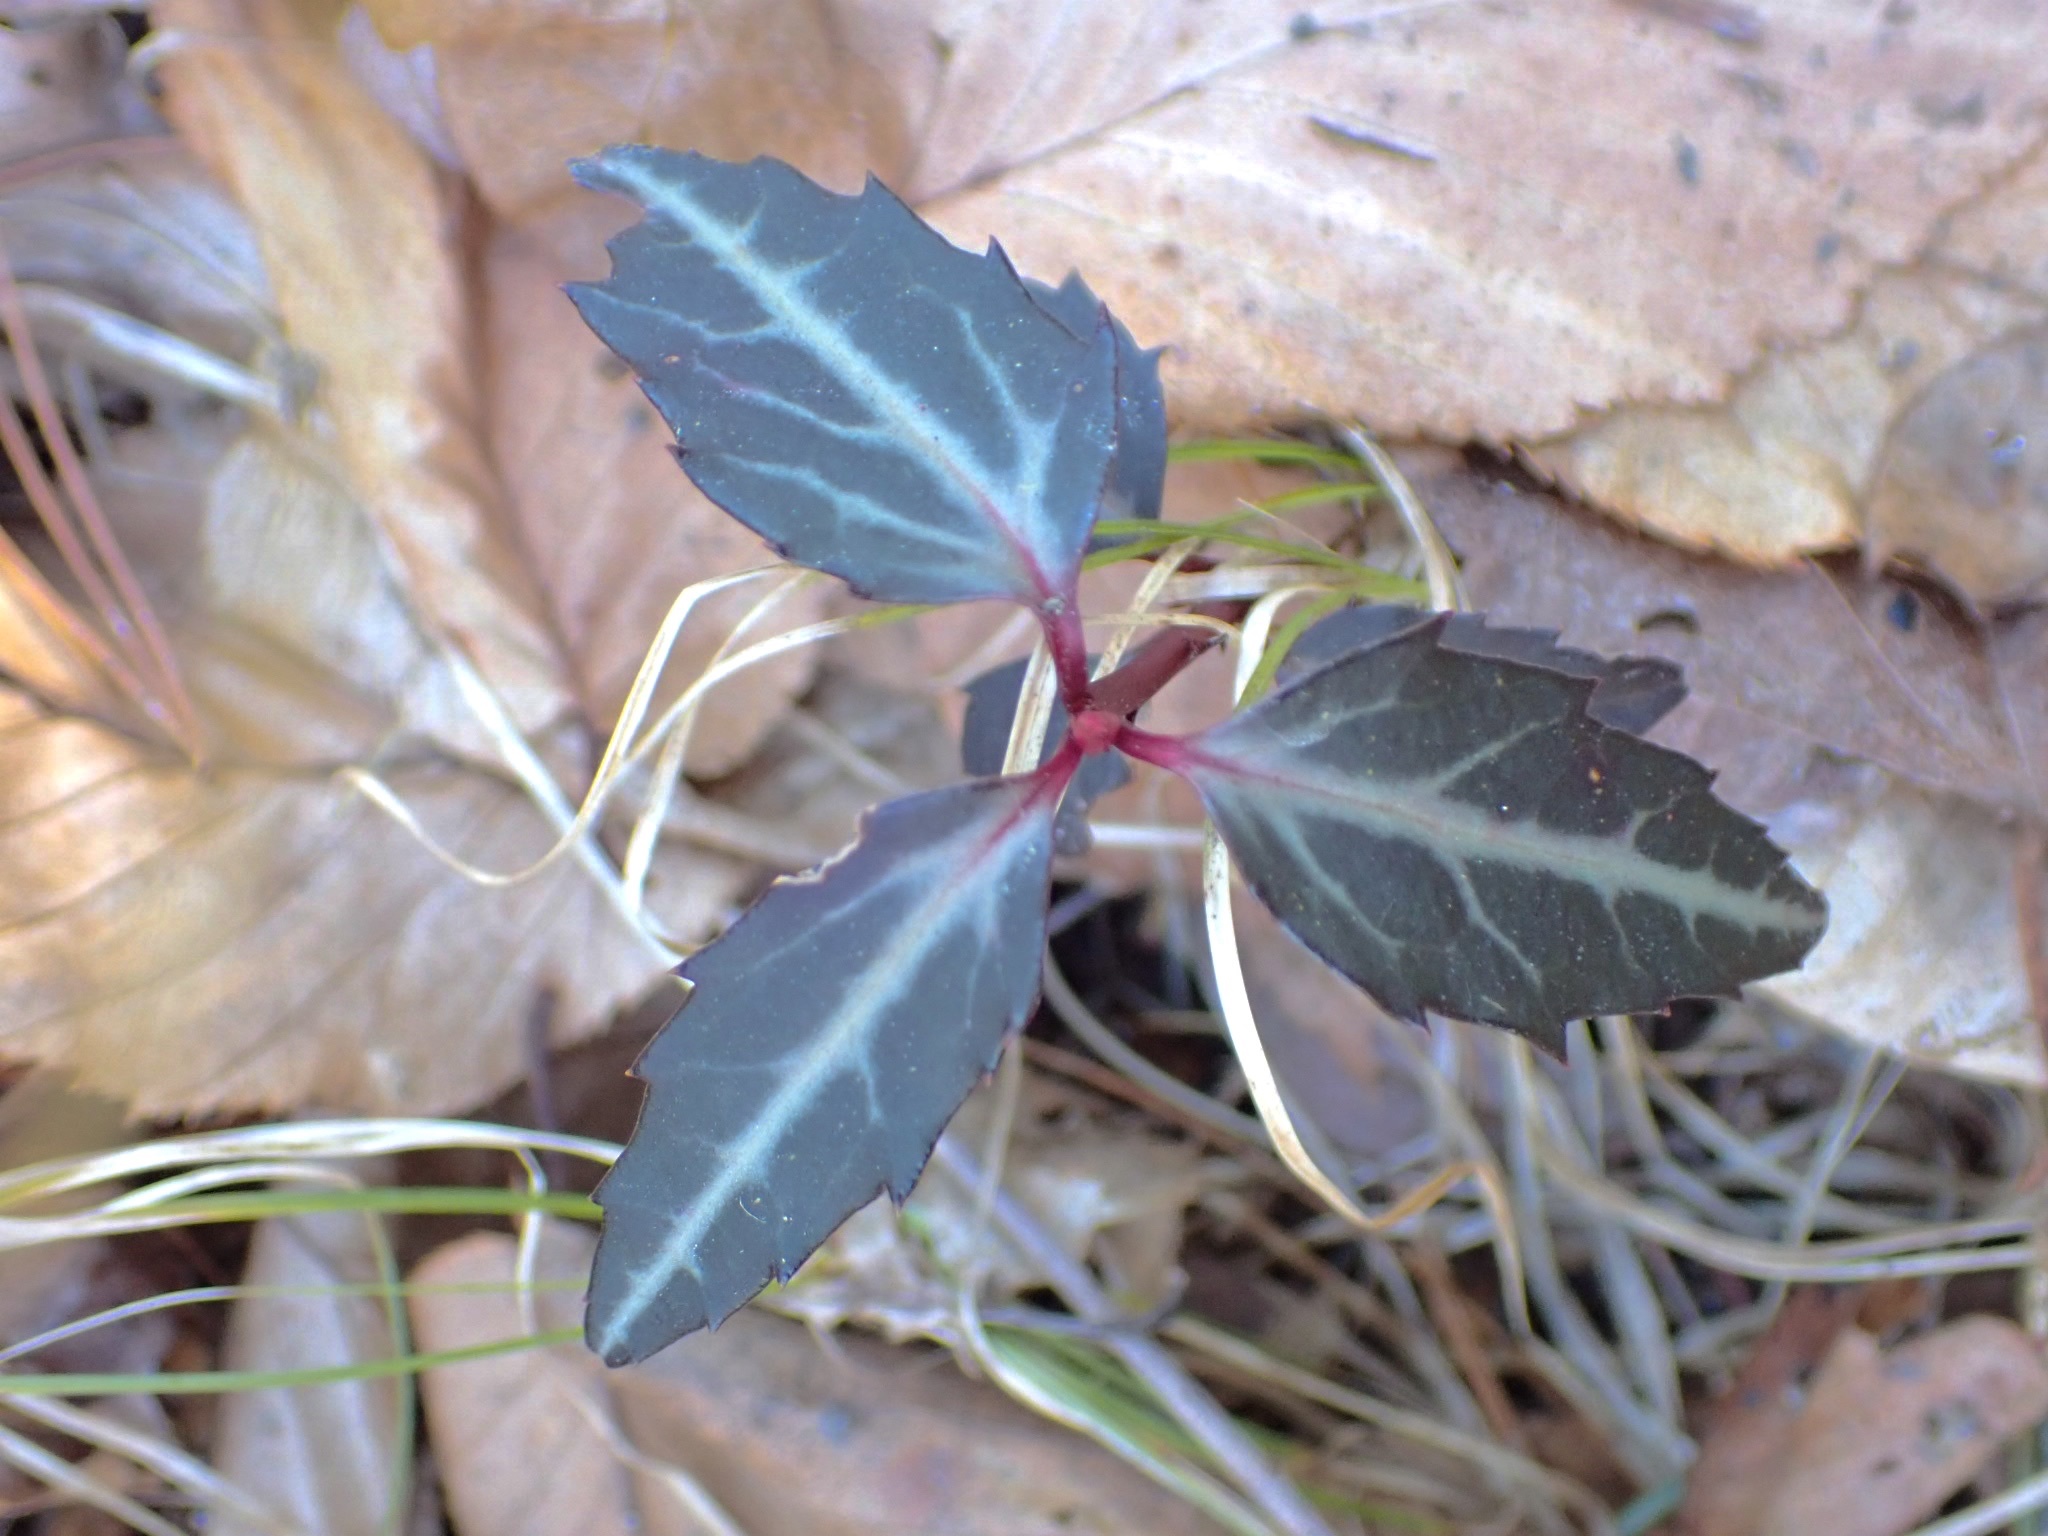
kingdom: Plantae
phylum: Tracheophyta
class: Magnoliopsida
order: Ericales
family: Ericaceae
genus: Chimaphila
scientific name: Chimaphila maculata
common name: Spotted pipsissewa
